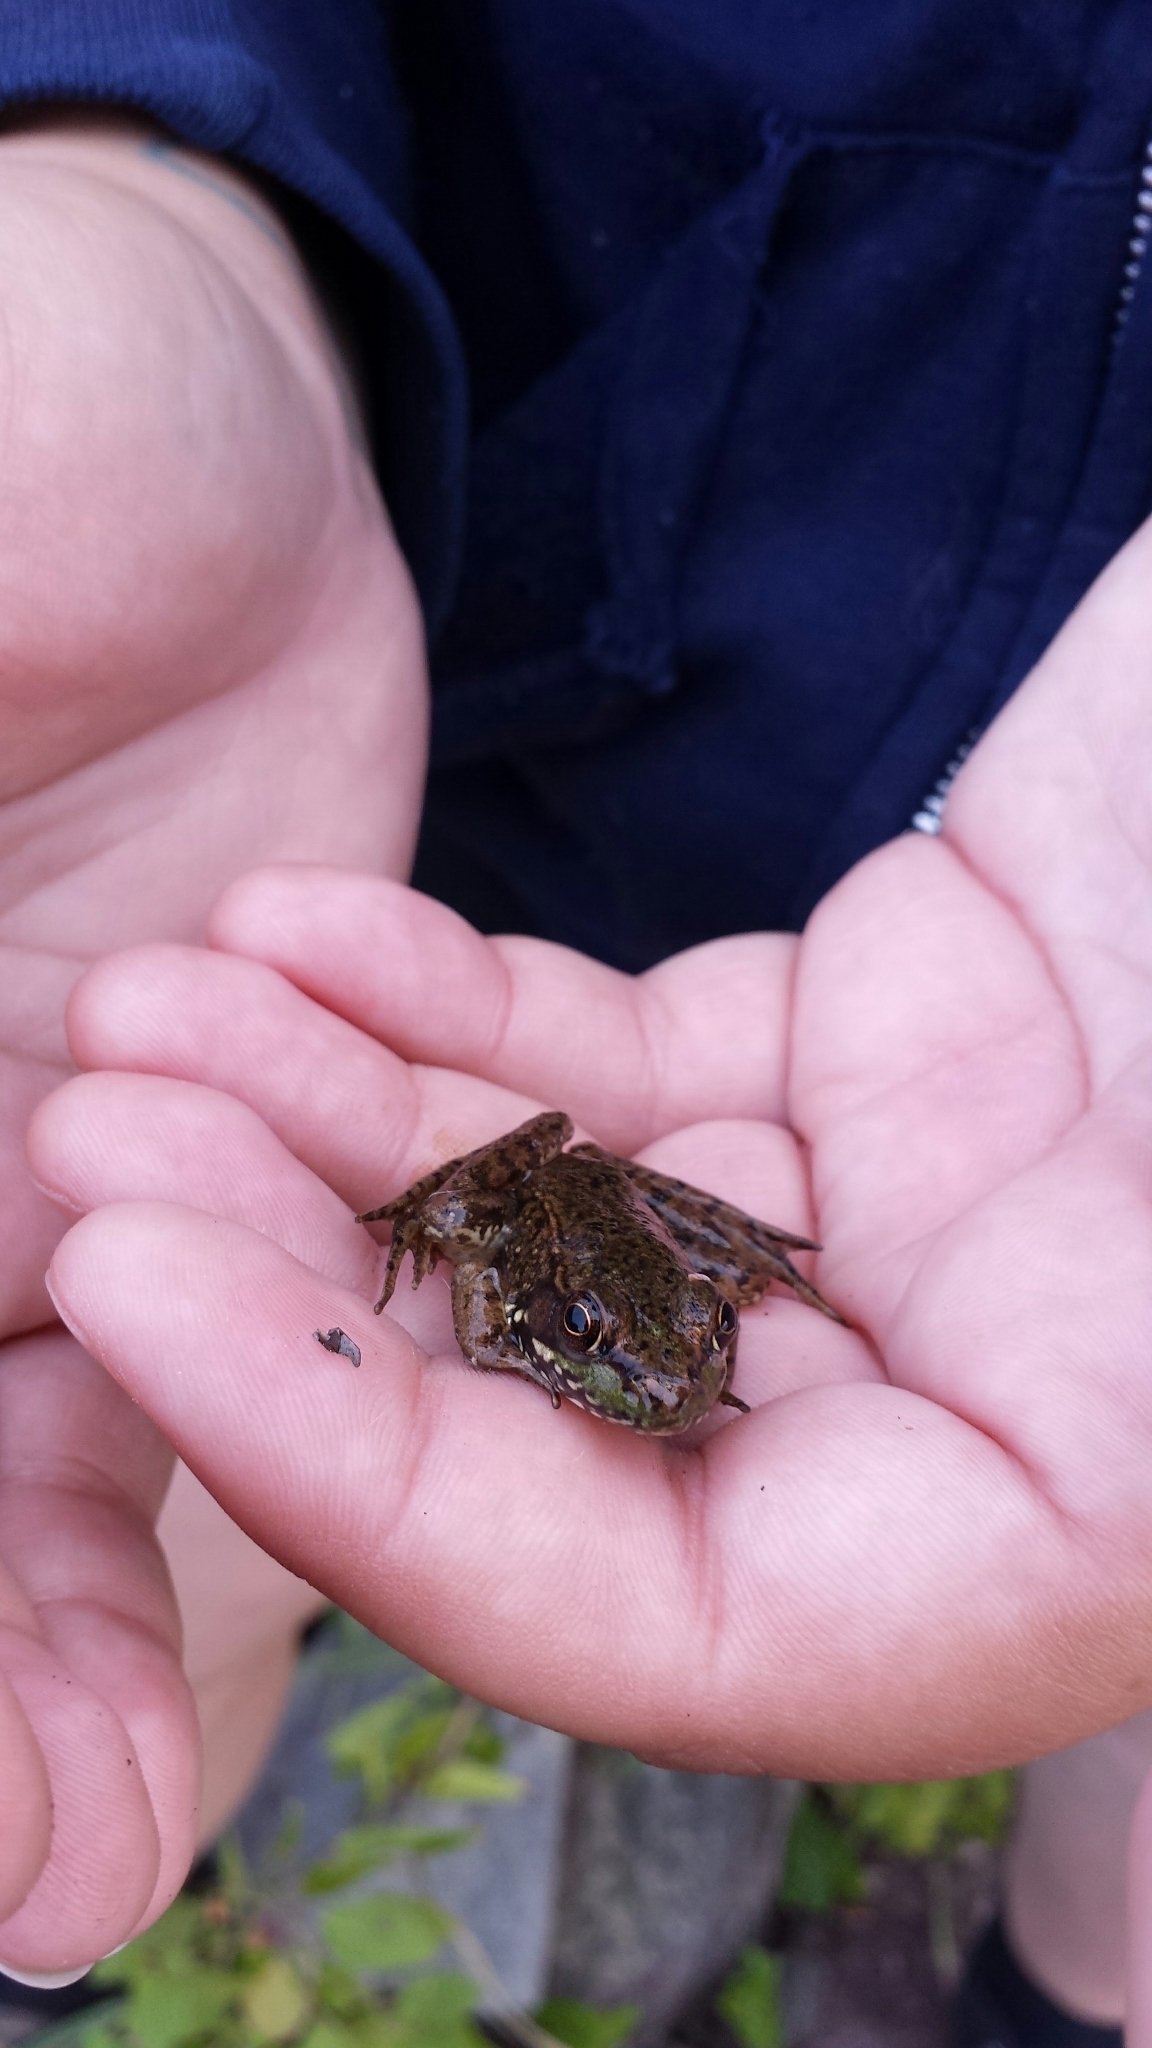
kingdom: Animalia
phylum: Chordata
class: Amphibia
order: Anura
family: Ranidae
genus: Lithobates
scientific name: Lithobates clamitans
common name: Green frog
